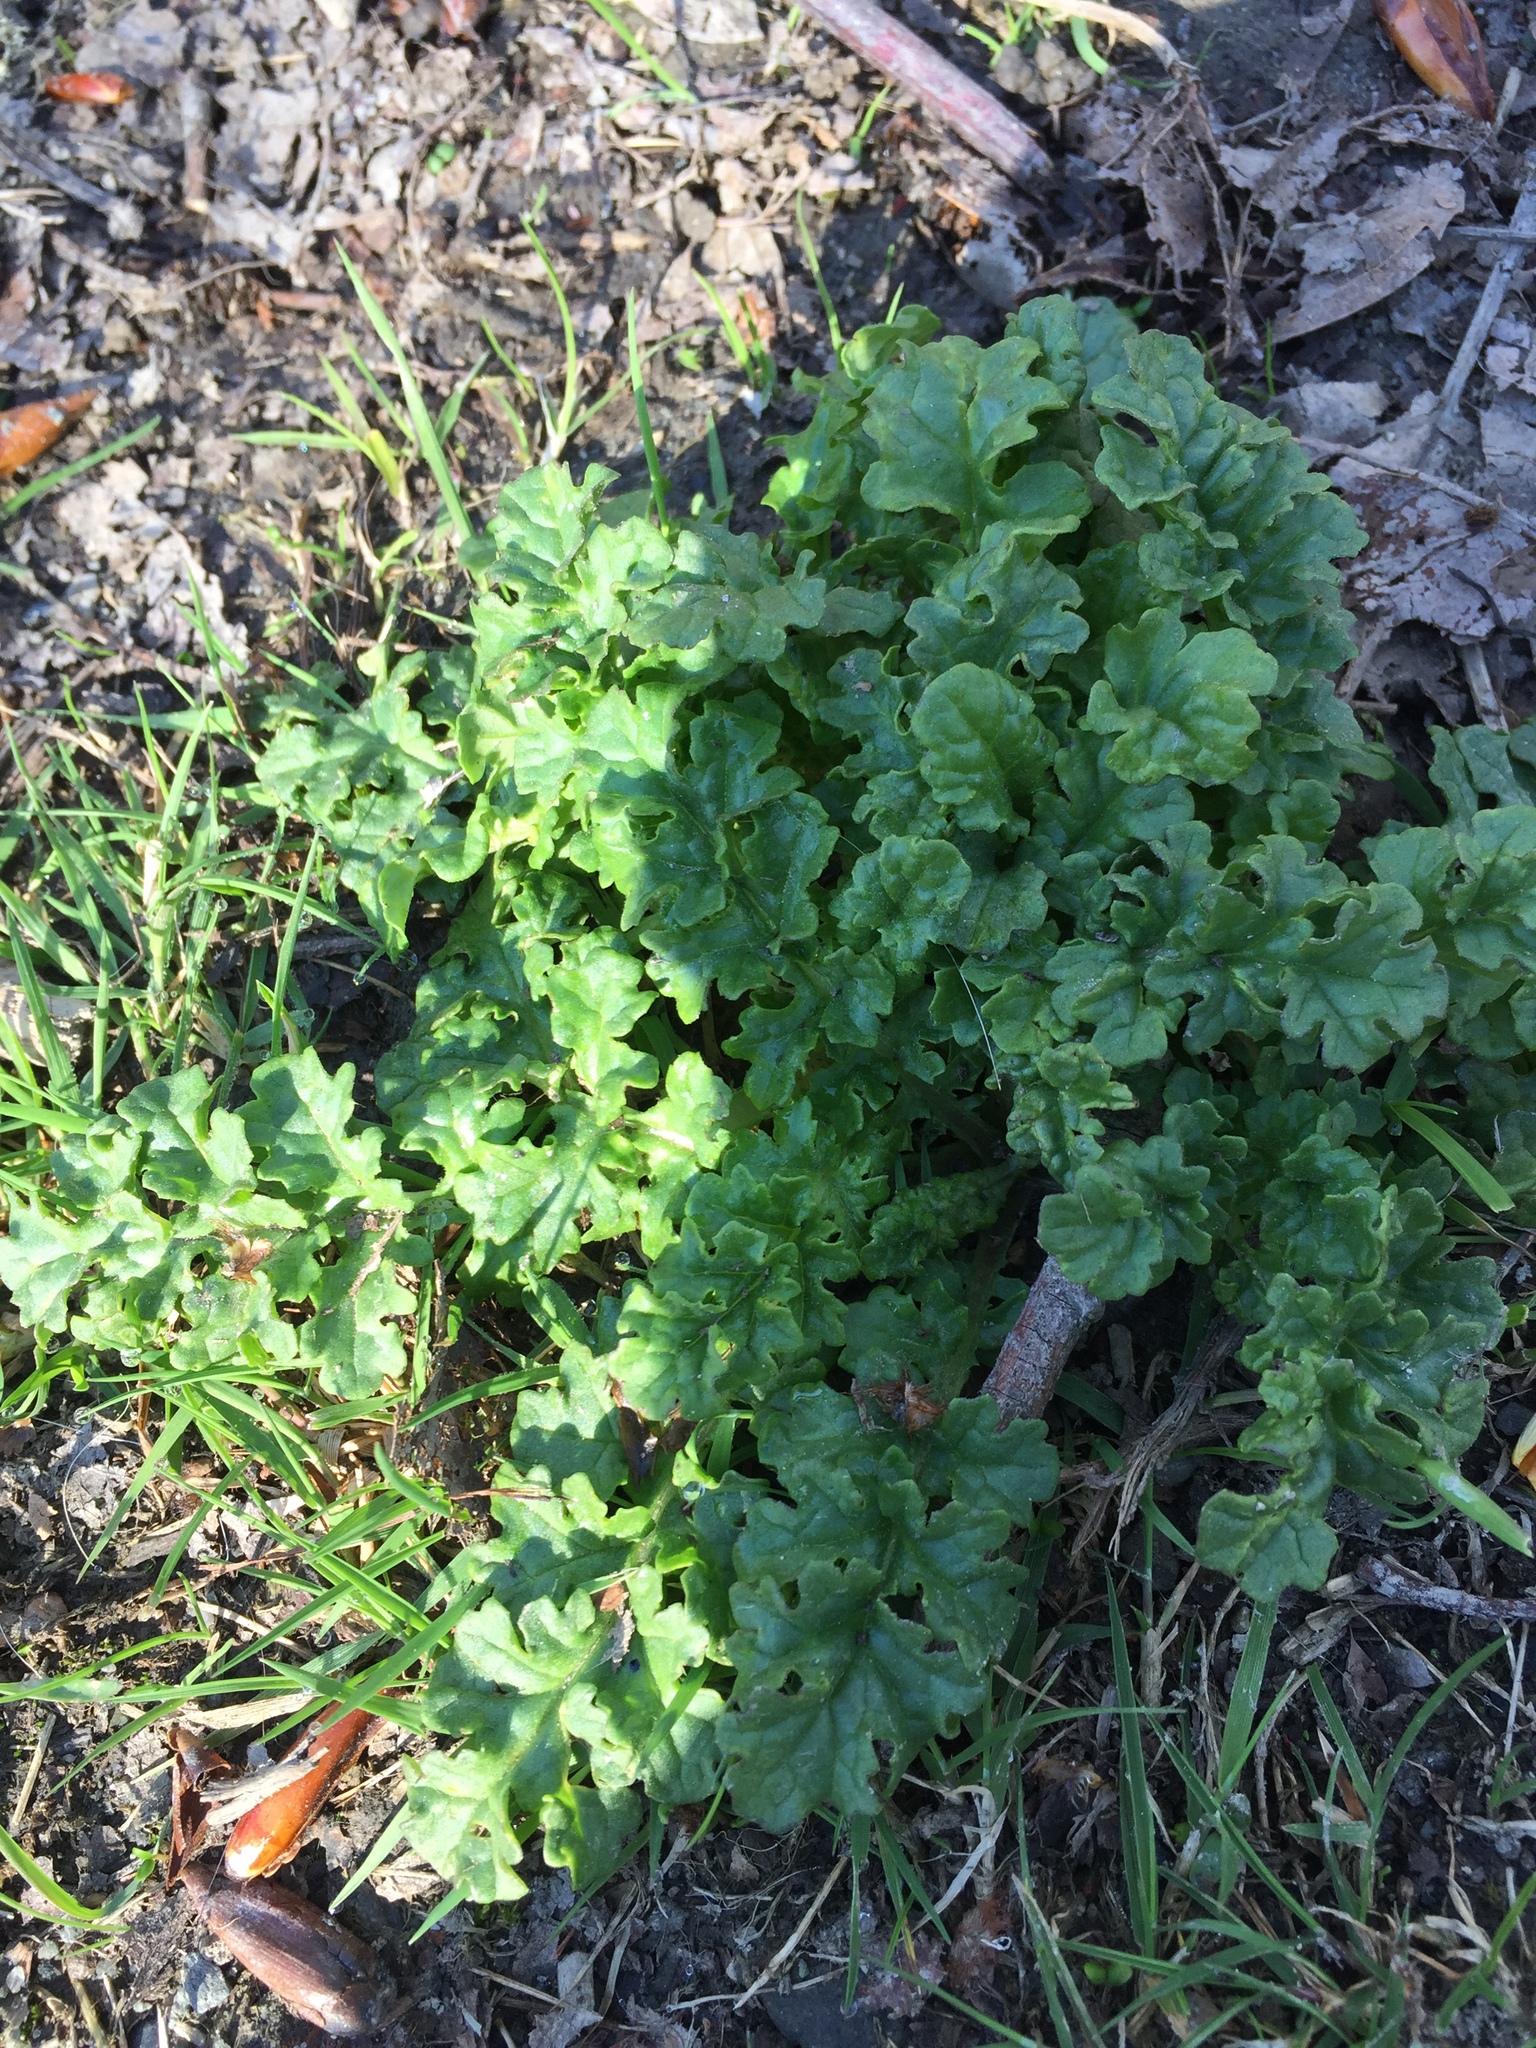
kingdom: Plantae
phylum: Tracheophyta
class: Magnoliopsida
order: Asterales
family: Asteraceae
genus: Jacobaea
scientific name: Jacobaea vulgaris
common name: Stinking willie
